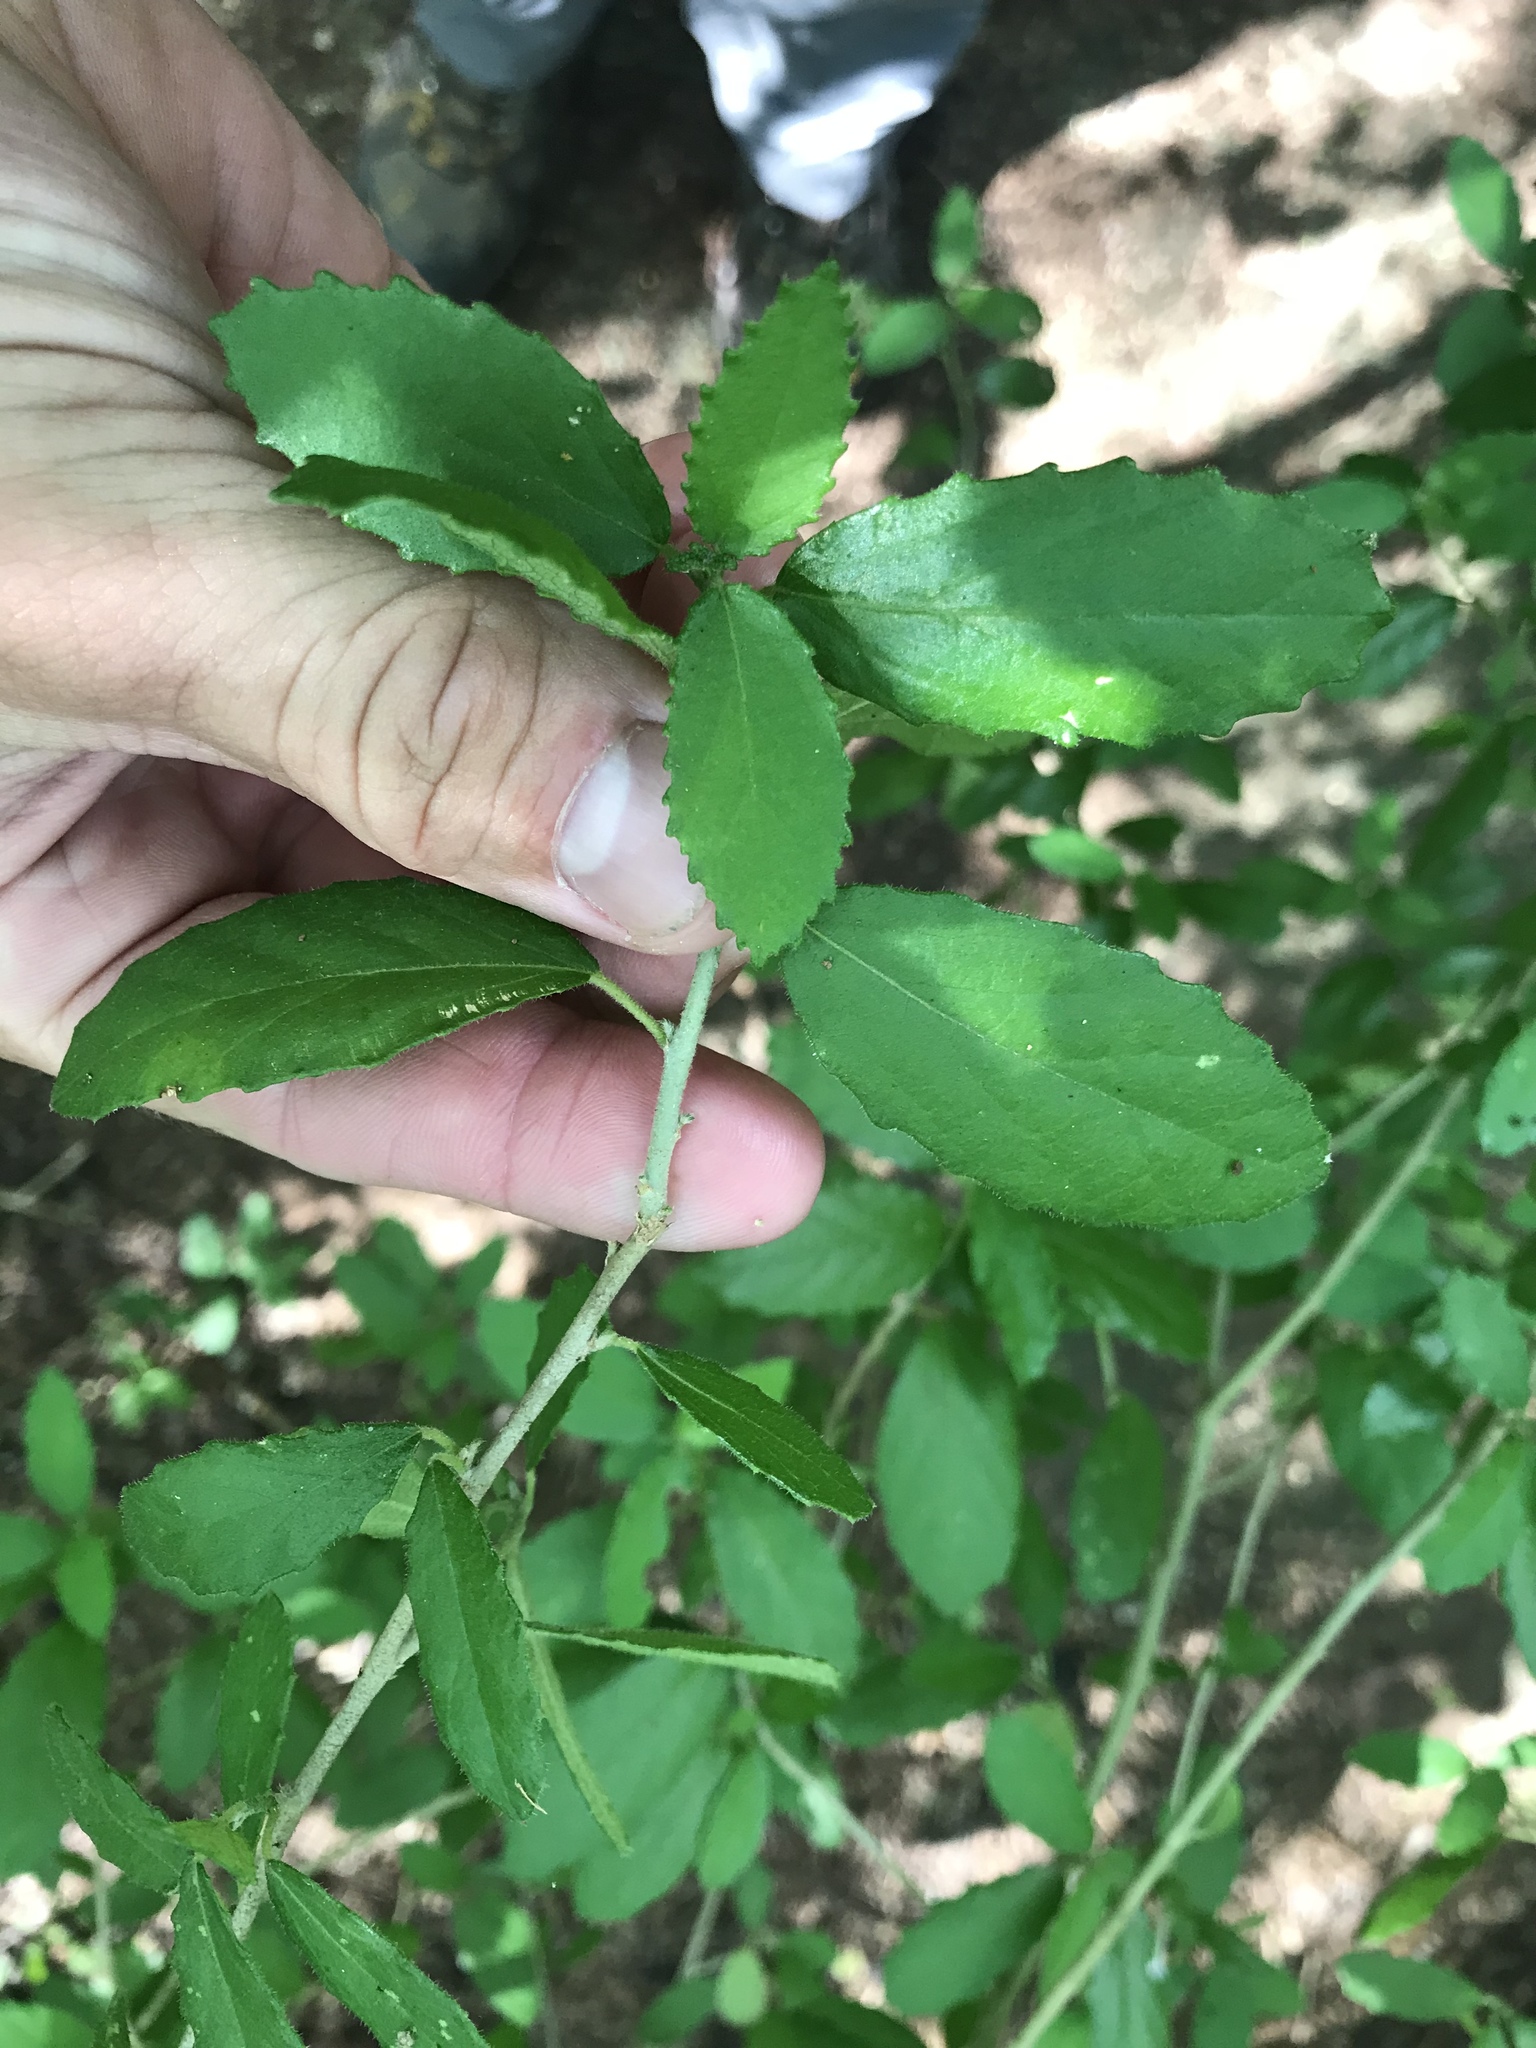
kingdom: Plantae
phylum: Tracheophyta
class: Magnoliopsida
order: Malpighiales
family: Euphorbiaceae
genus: Bernardia
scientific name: Bernardia myricifolia
